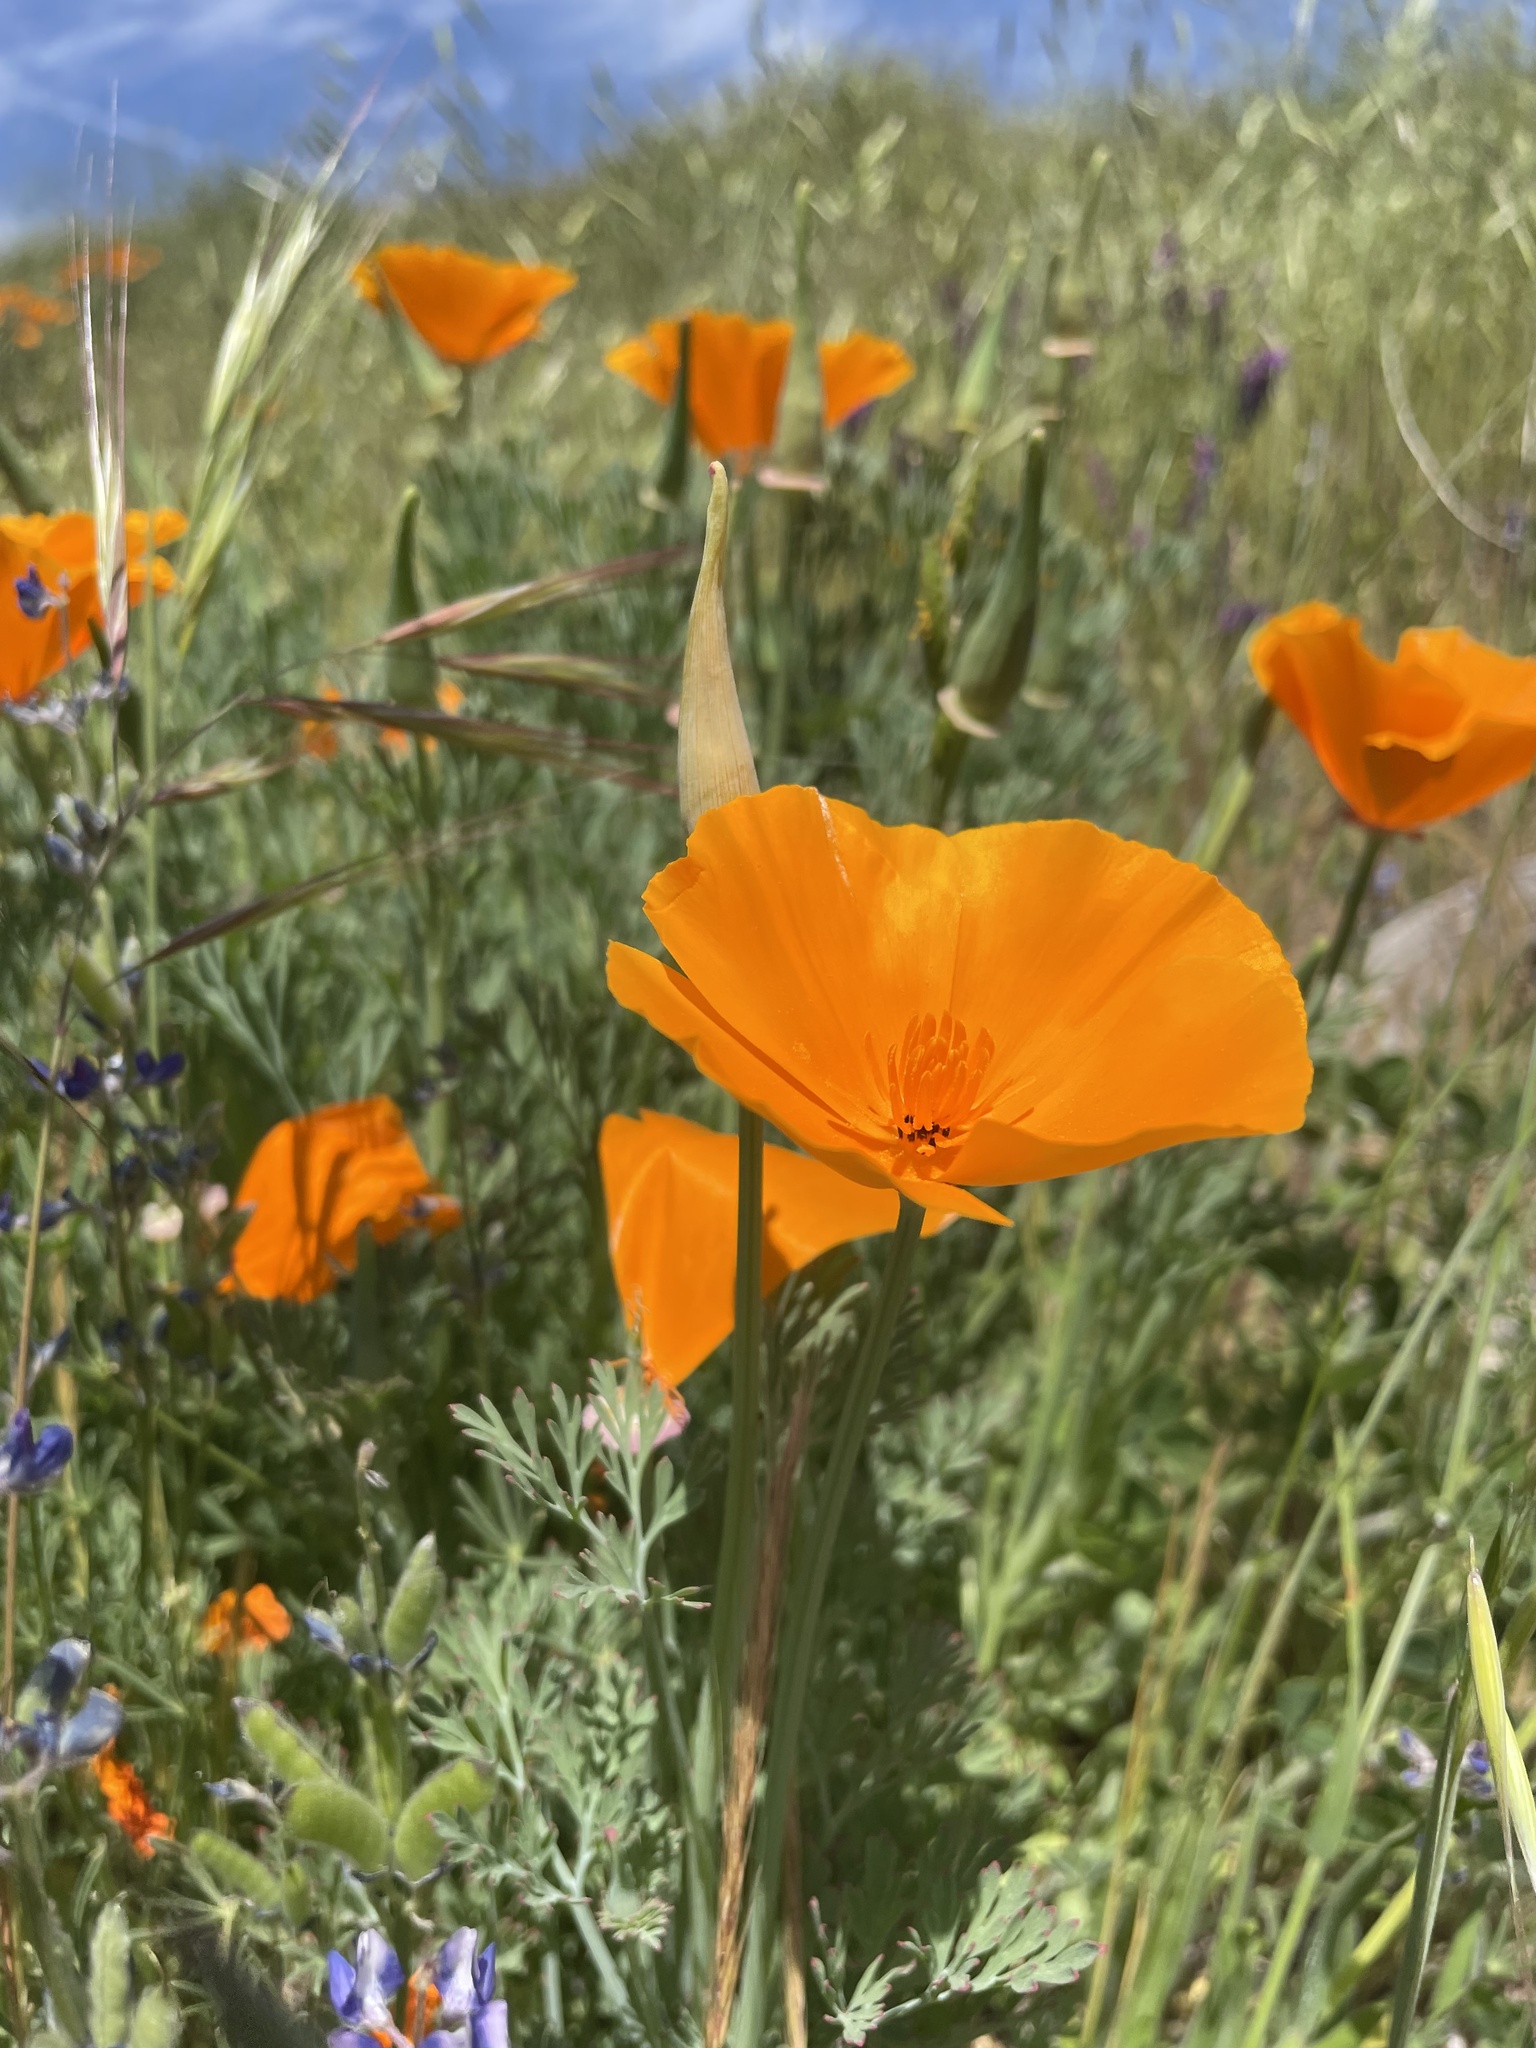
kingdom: Plantae
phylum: Tracheophyta
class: Magnoliopsida
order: Ranunculales
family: Papaveraceae
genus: Eschscholzia
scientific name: Eschscholzia californica
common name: California poppy
